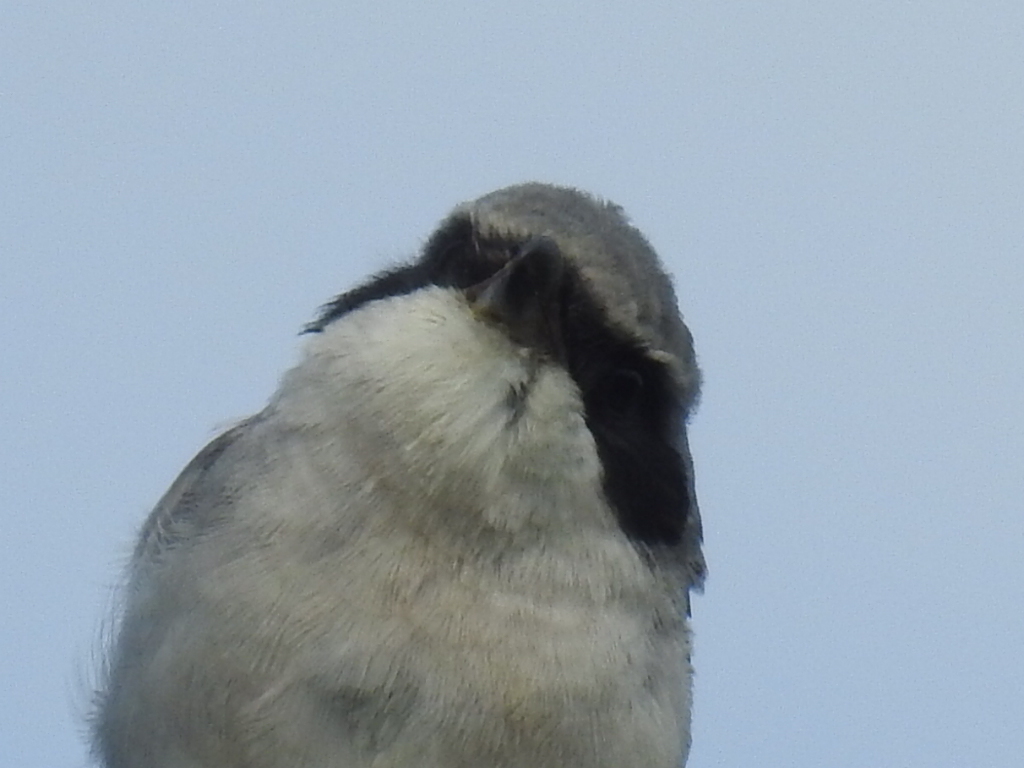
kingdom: Animalia
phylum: Chordata
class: Aves
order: Passeriformes
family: Laniidae
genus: Lanius
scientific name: Lanius ludovicianus
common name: Loggerhead shrike
